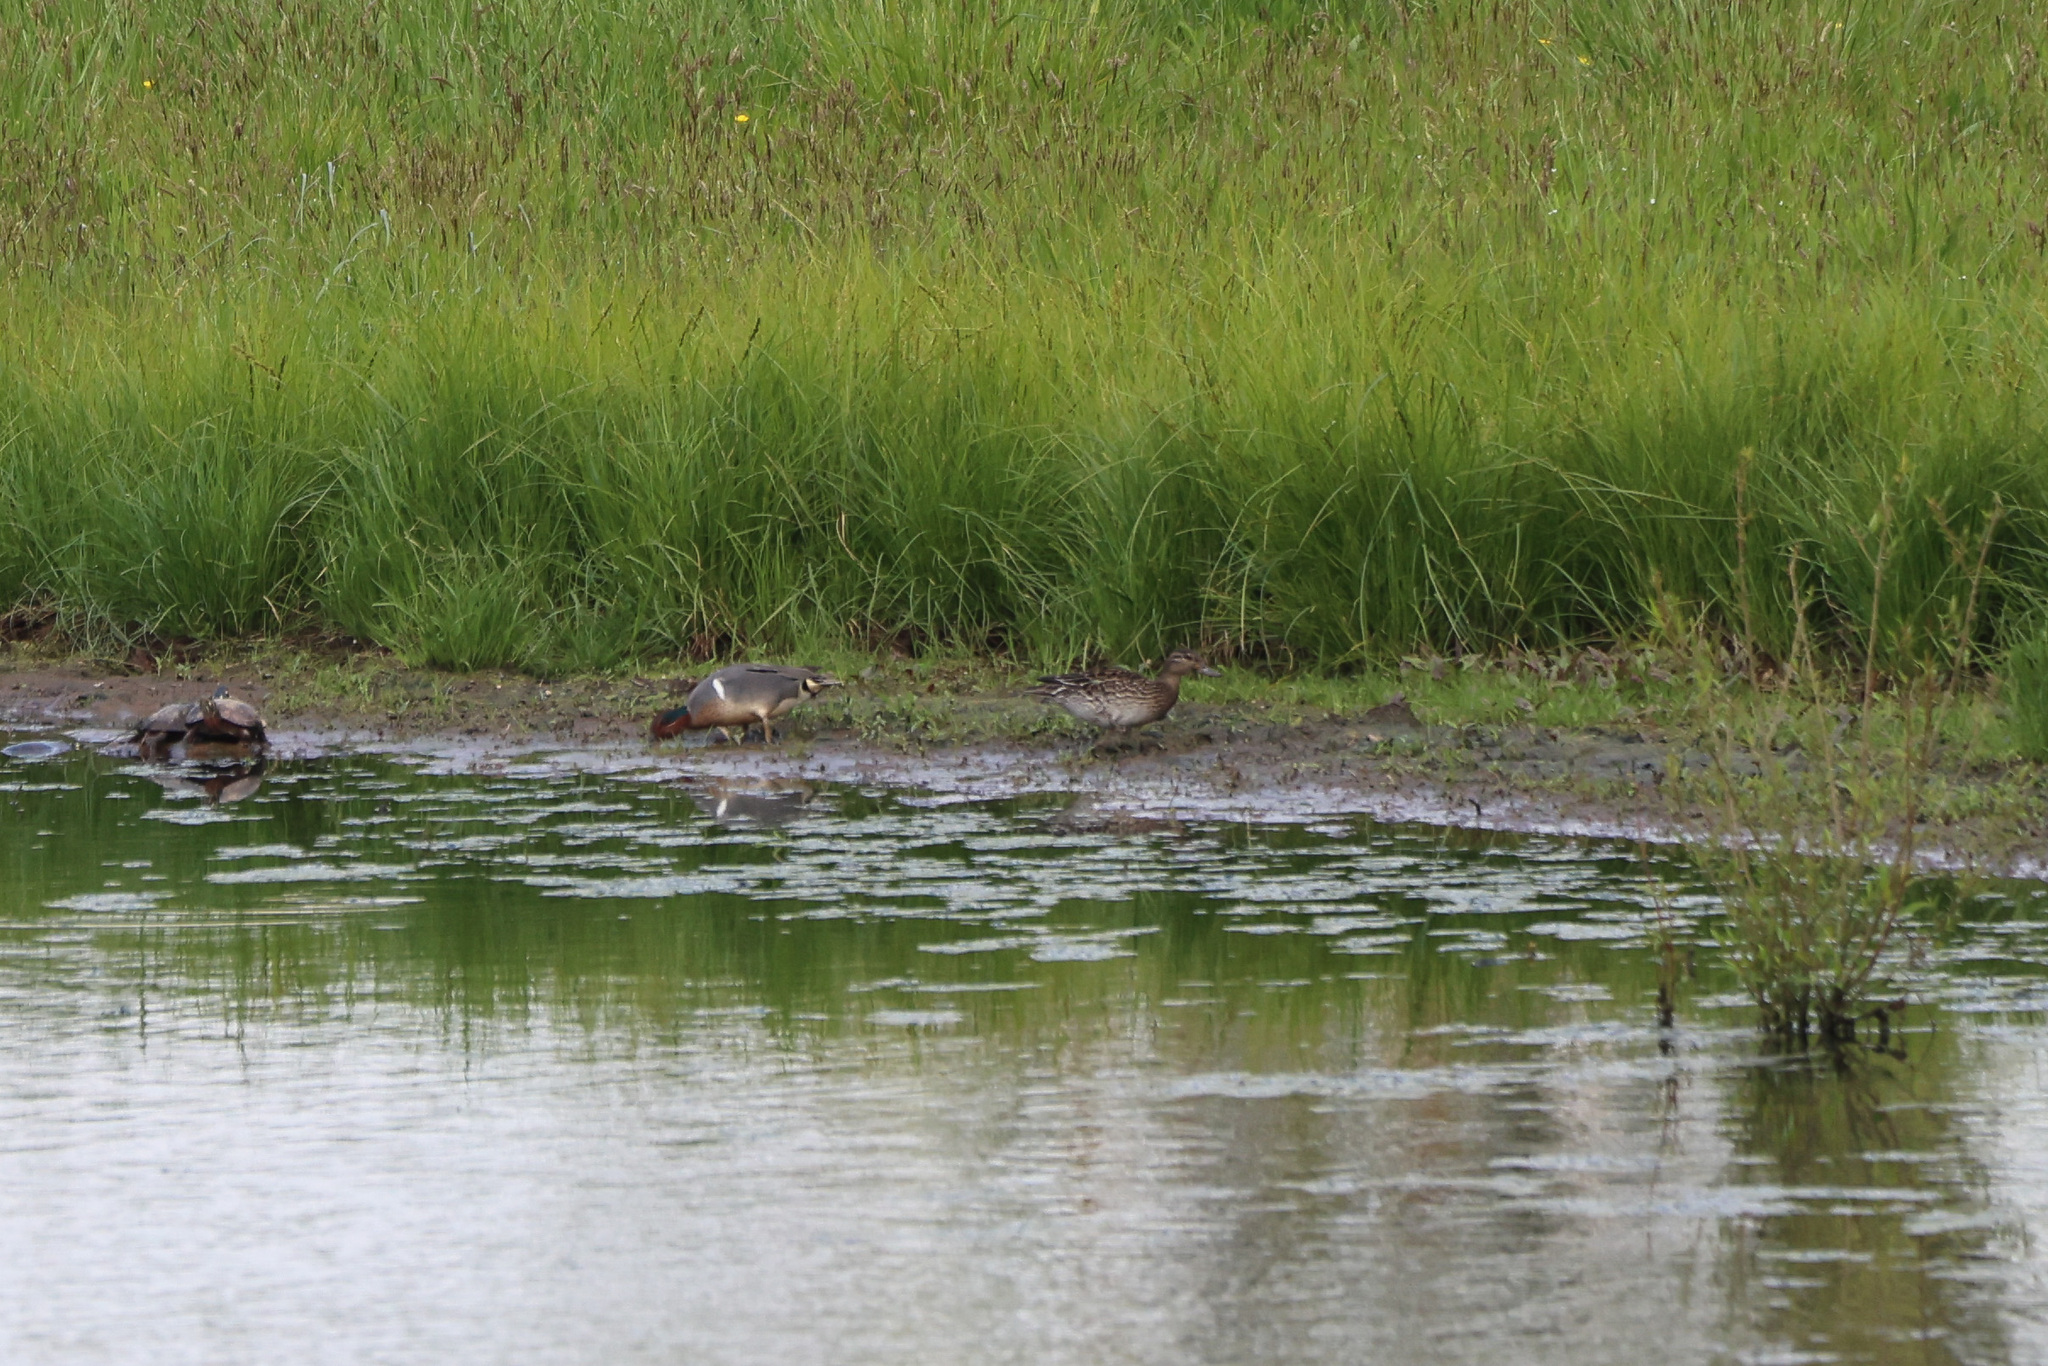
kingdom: Animalia
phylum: Chordata
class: Aves
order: Anseriformes
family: Anatidae
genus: Anas
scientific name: Anas crecca
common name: Eurasian teal
